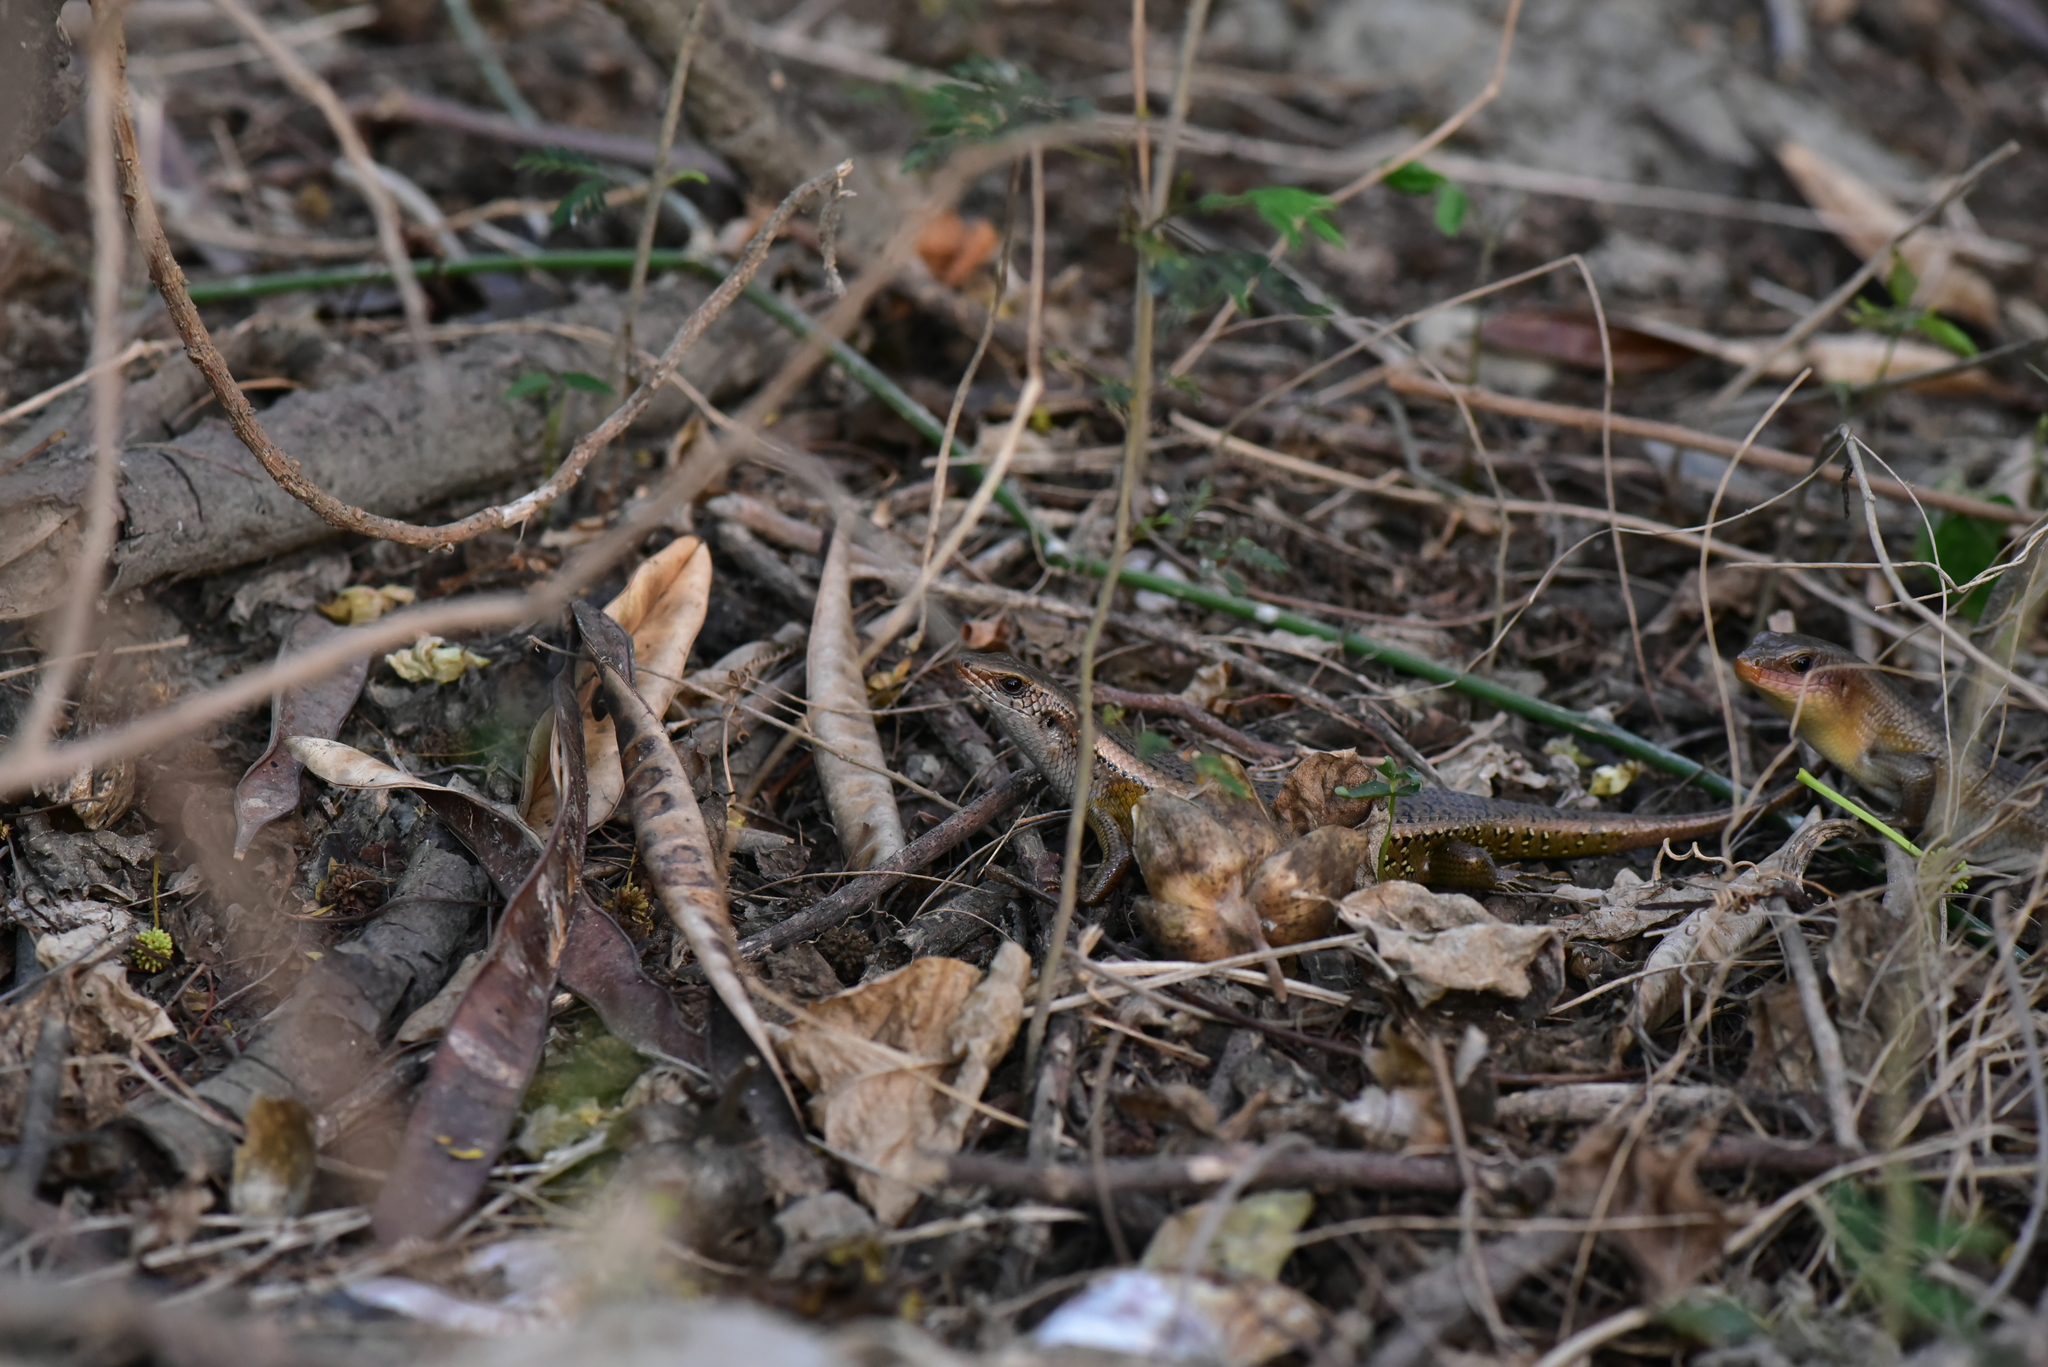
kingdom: Animalia
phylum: Chordata
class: Squamata
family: Scincidae
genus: Eutropis
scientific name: Eutropis multifasciata
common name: Common mabuya
